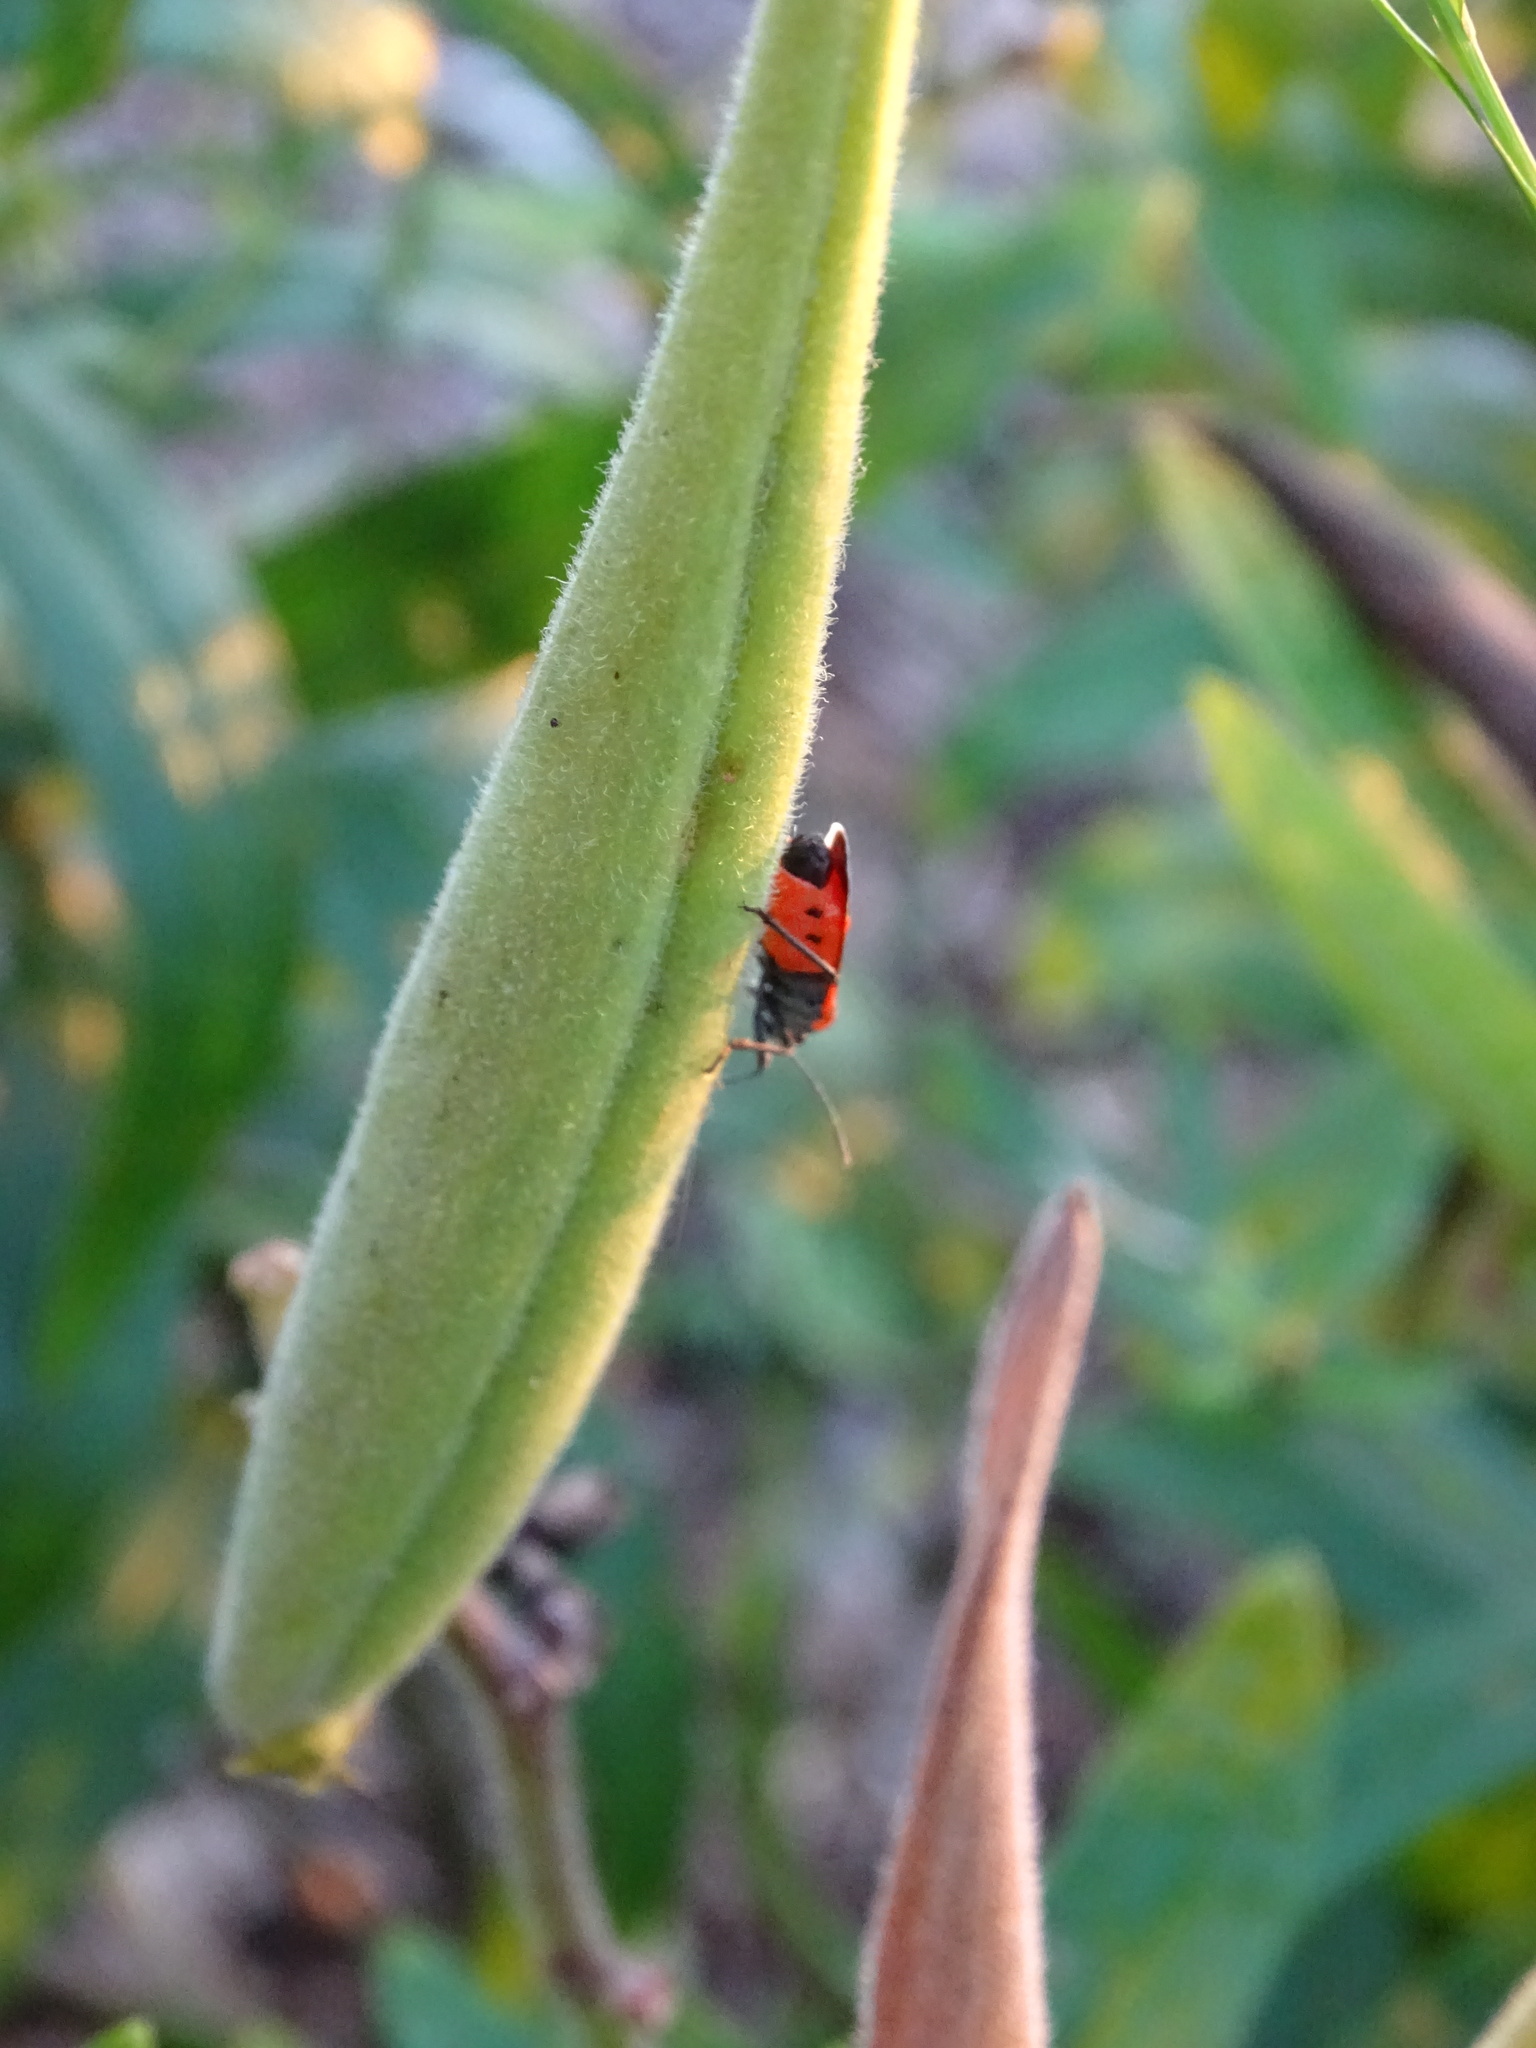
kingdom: Animalia
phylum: Arthropoda
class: Insecta
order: Hemiptera
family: Lygaeidae
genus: Lygaeus
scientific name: Lygaeus kalmii
